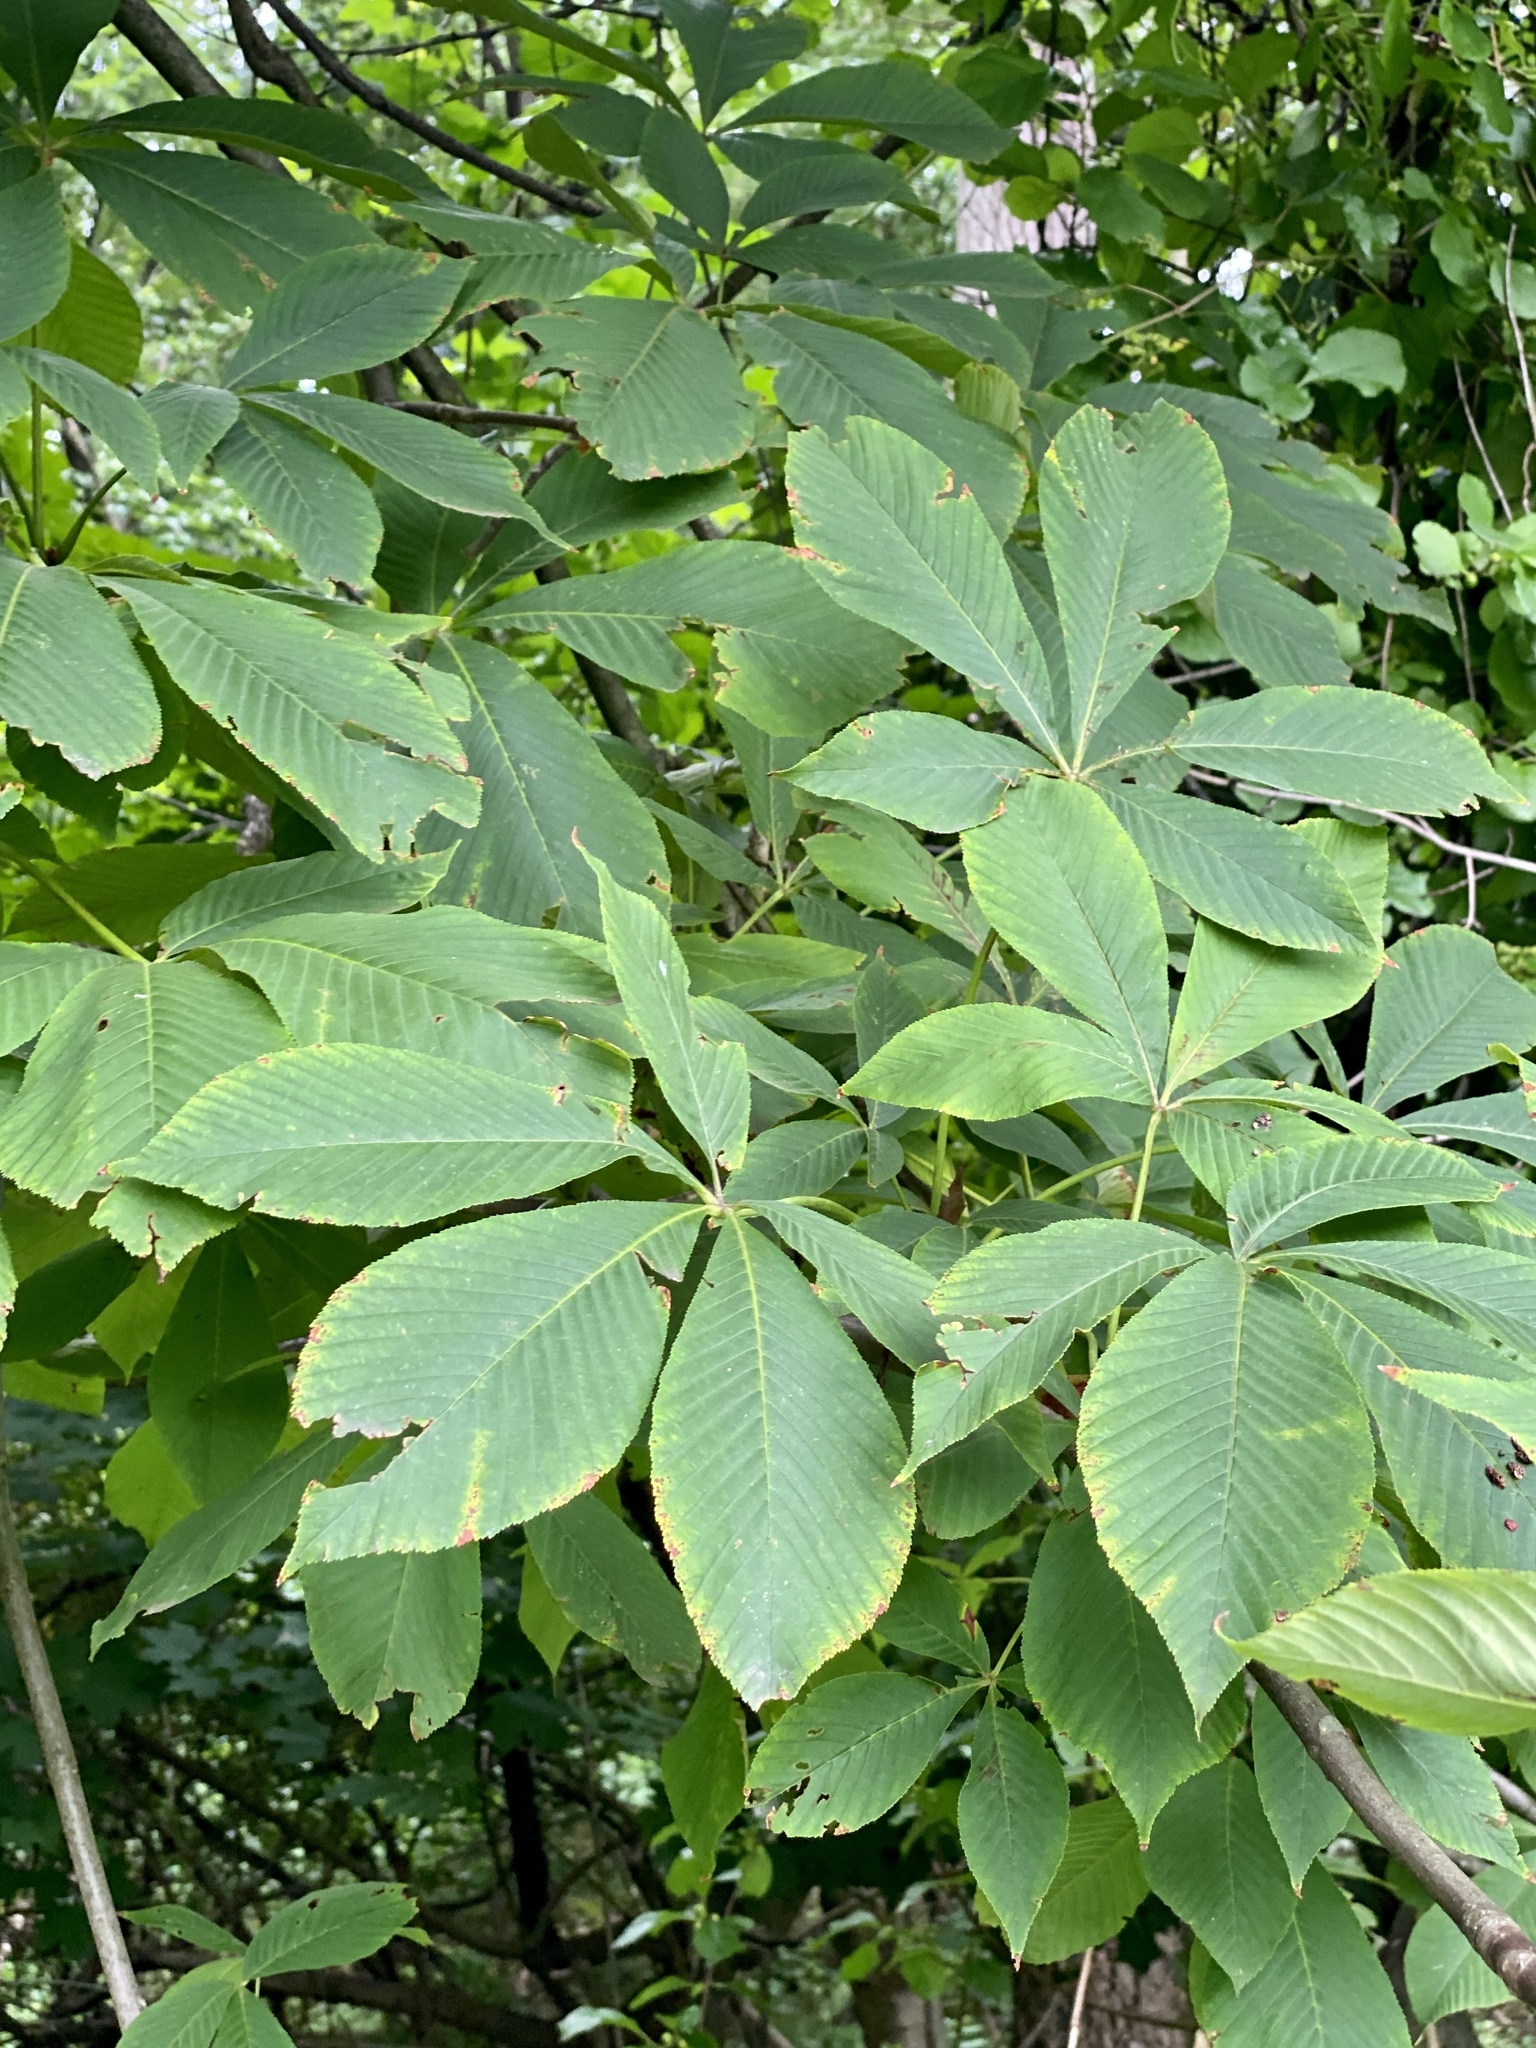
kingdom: Plantae
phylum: Tracheophyta
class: Magnoliopsida
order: Sapindales
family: Sapindaceae
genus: Aesculus
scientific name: Aesculus flava
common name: Yellow buckeye
